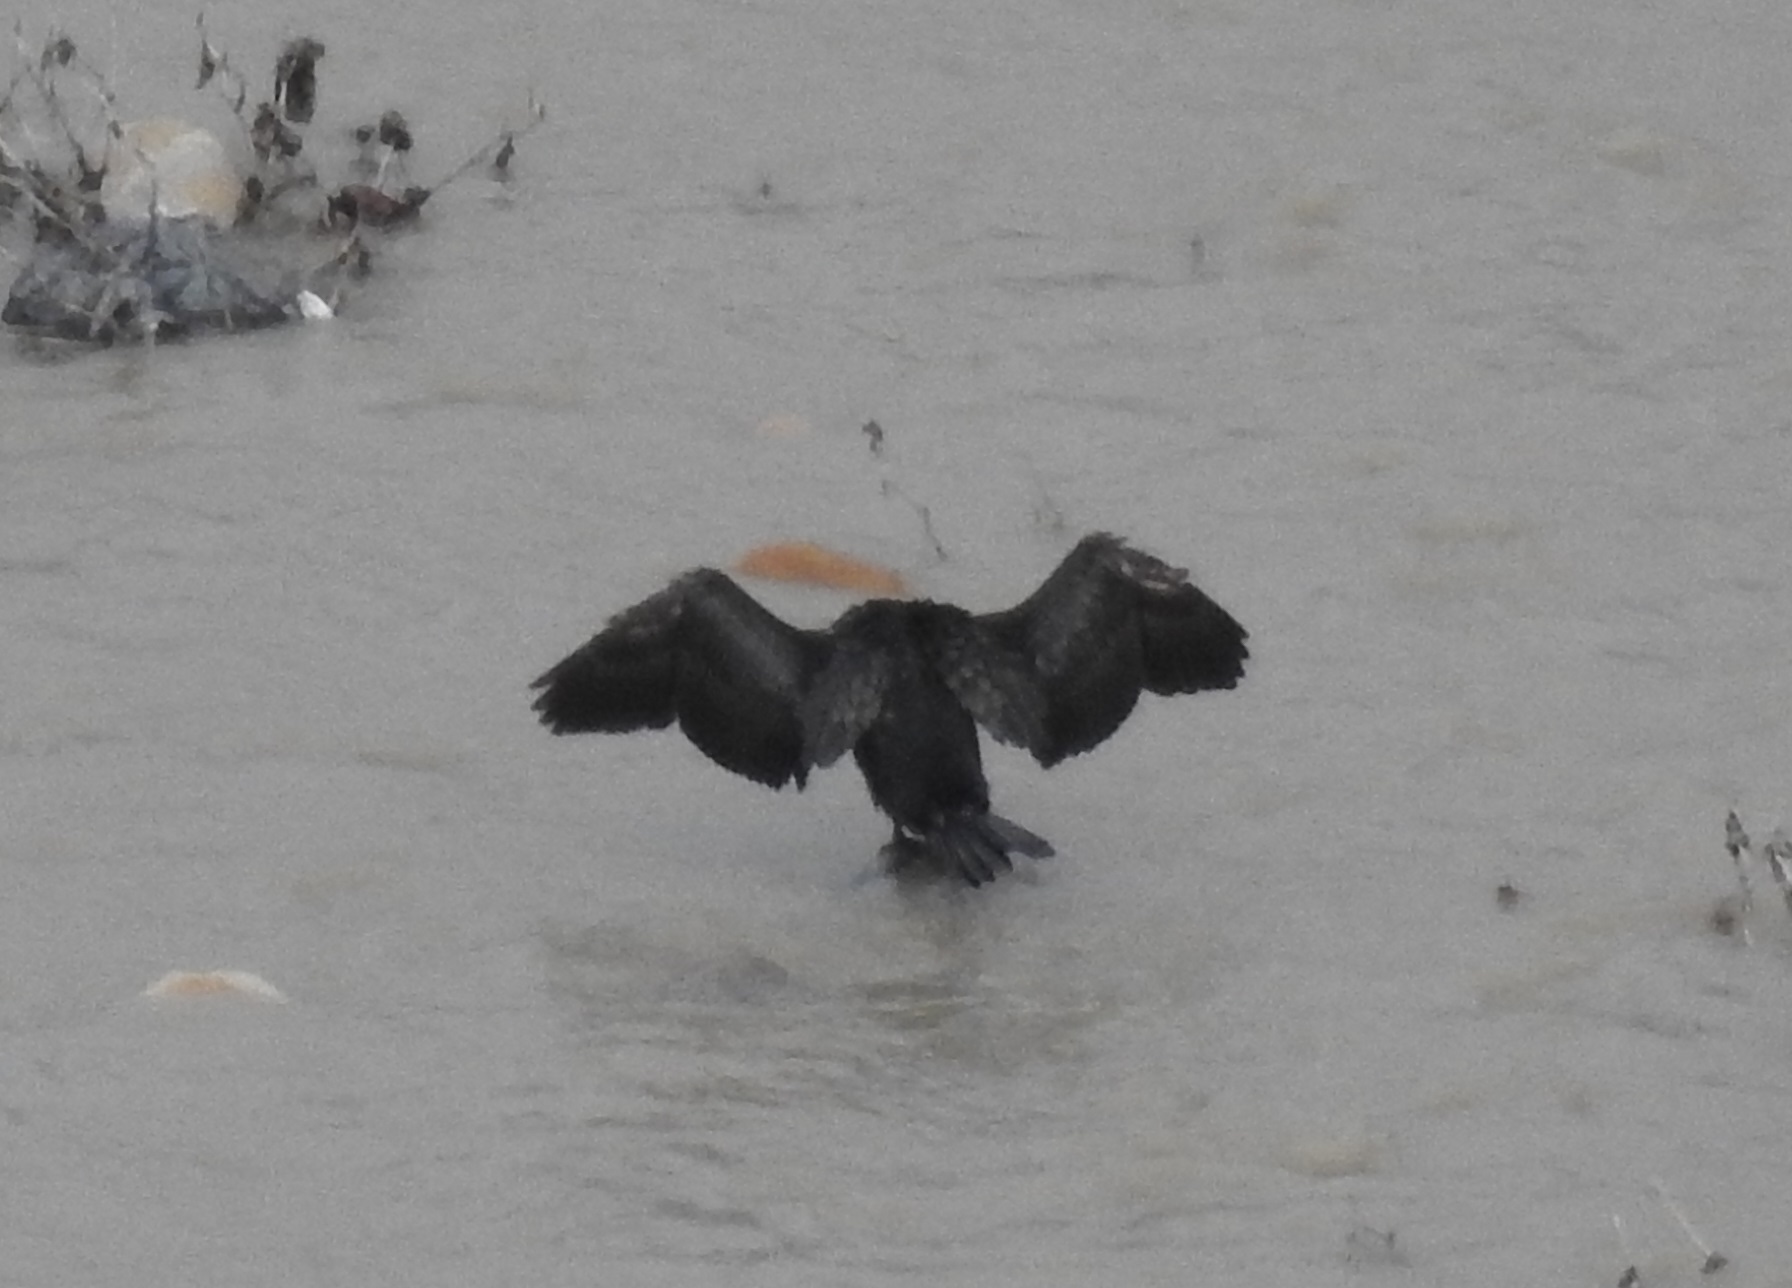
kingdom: Animalia
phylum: Chordata
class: Aves
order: Suliformes
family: Phalacrocoracidae
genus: Phalacrocorax
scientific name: Phalacrocorax carbo
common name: Great cormorant
